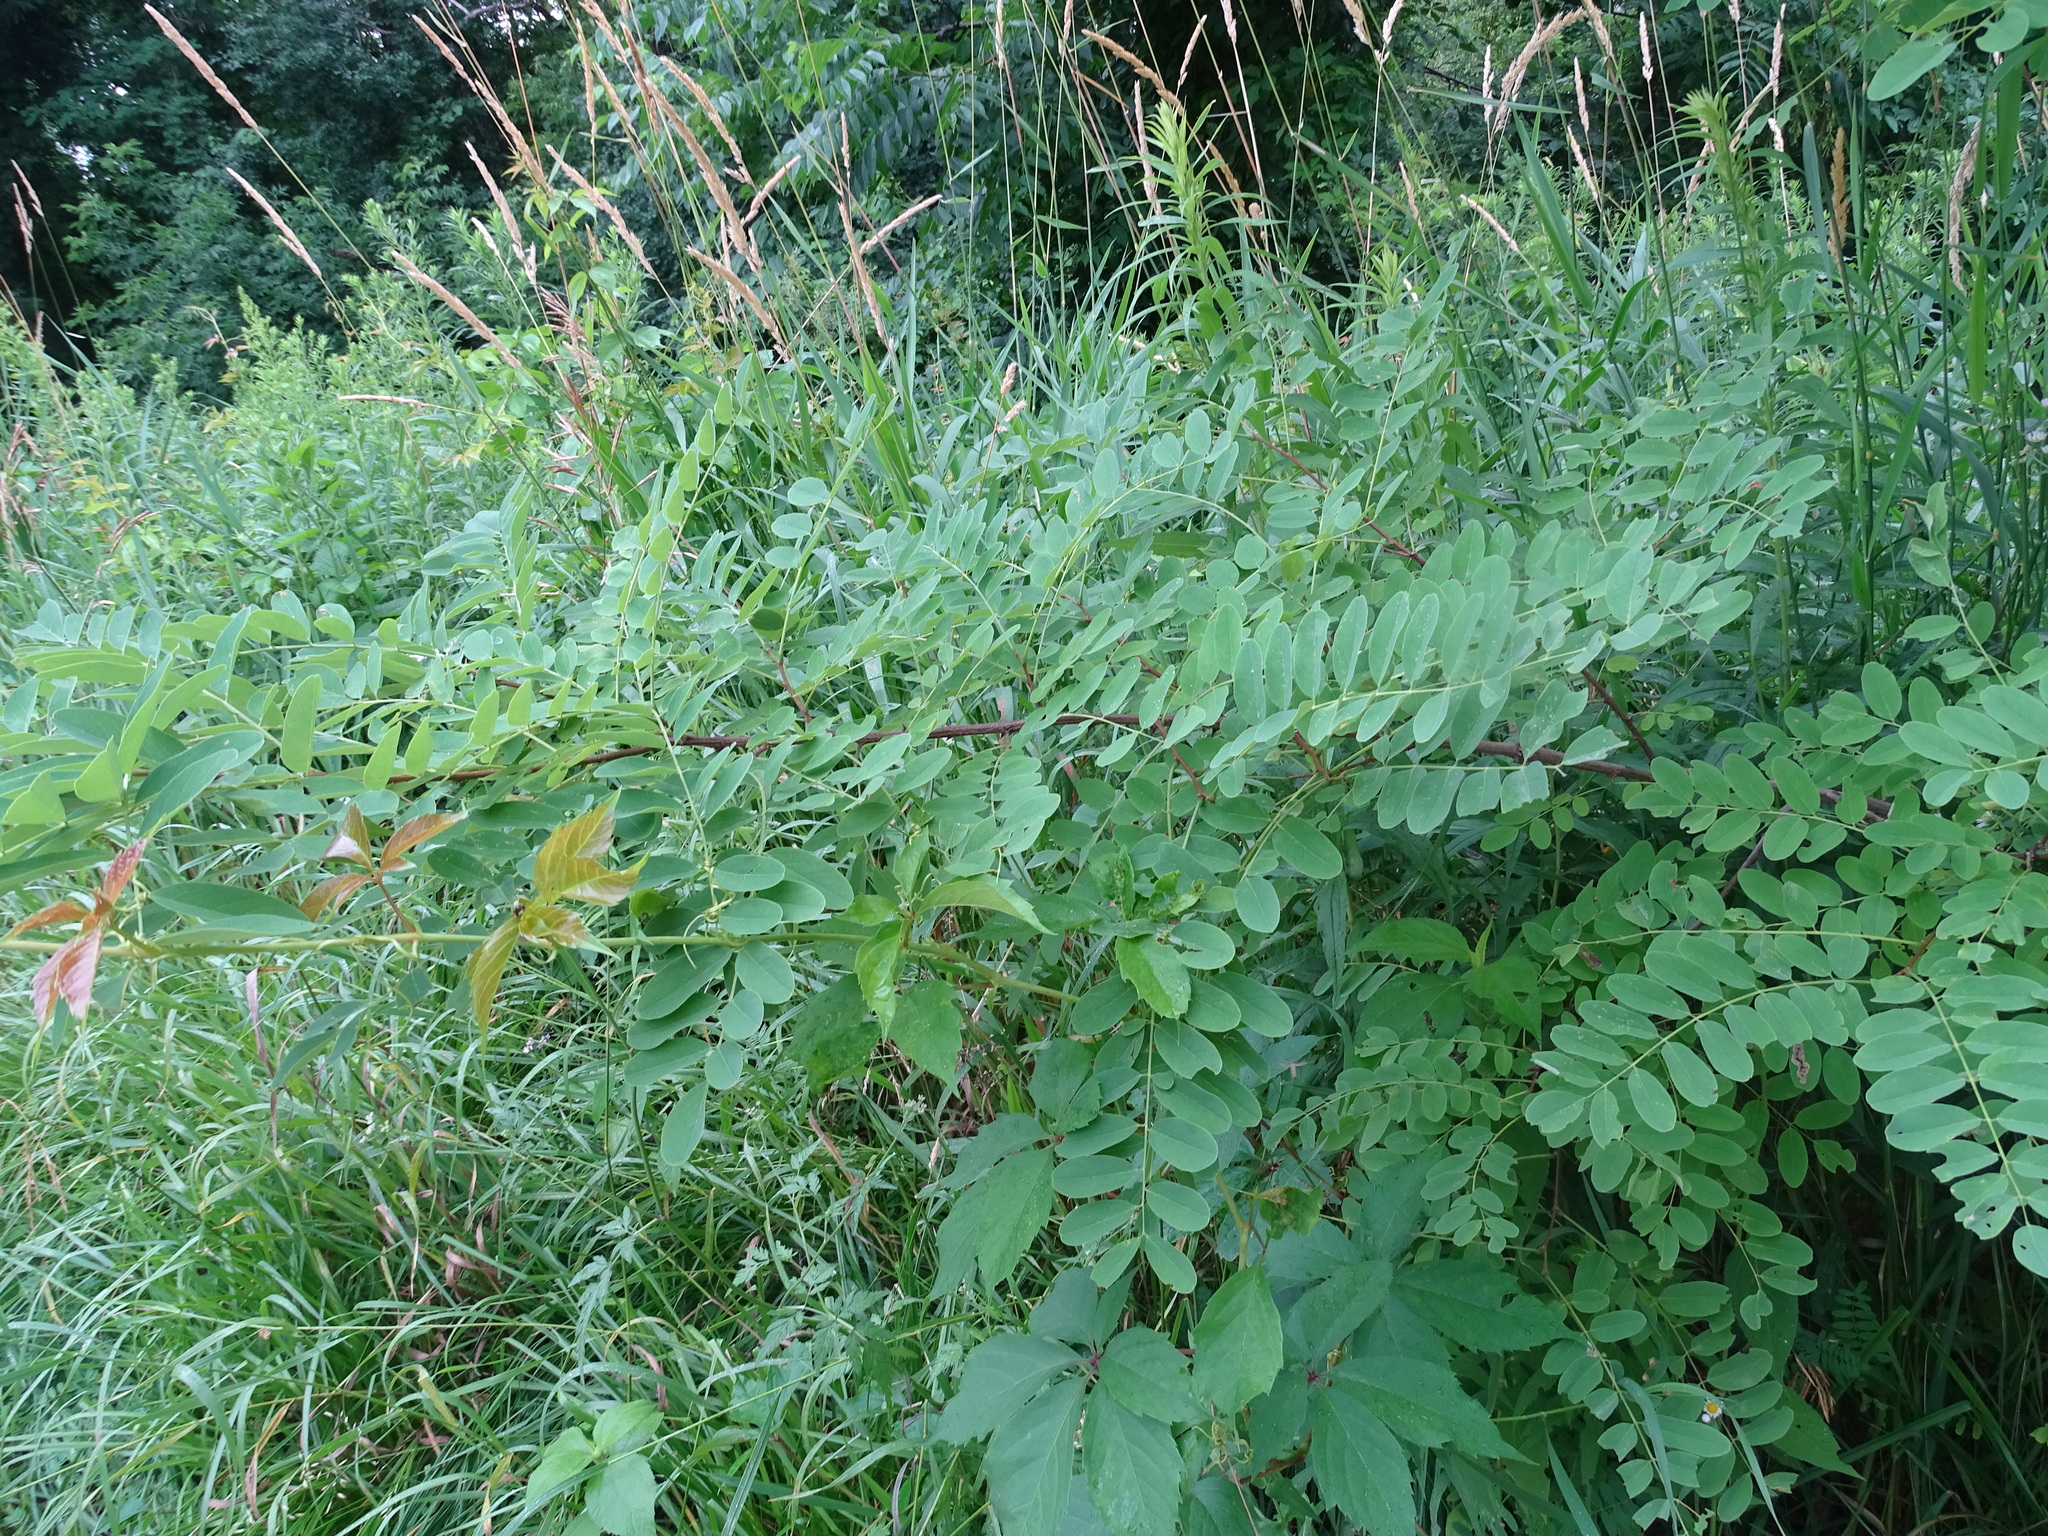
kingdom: Plantae
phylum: Tracheophyta
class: Magnoliopsida
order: Fabales
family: Fabaceae
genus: Robinia
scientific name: Robinia pseudoacacia
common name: Black locust
